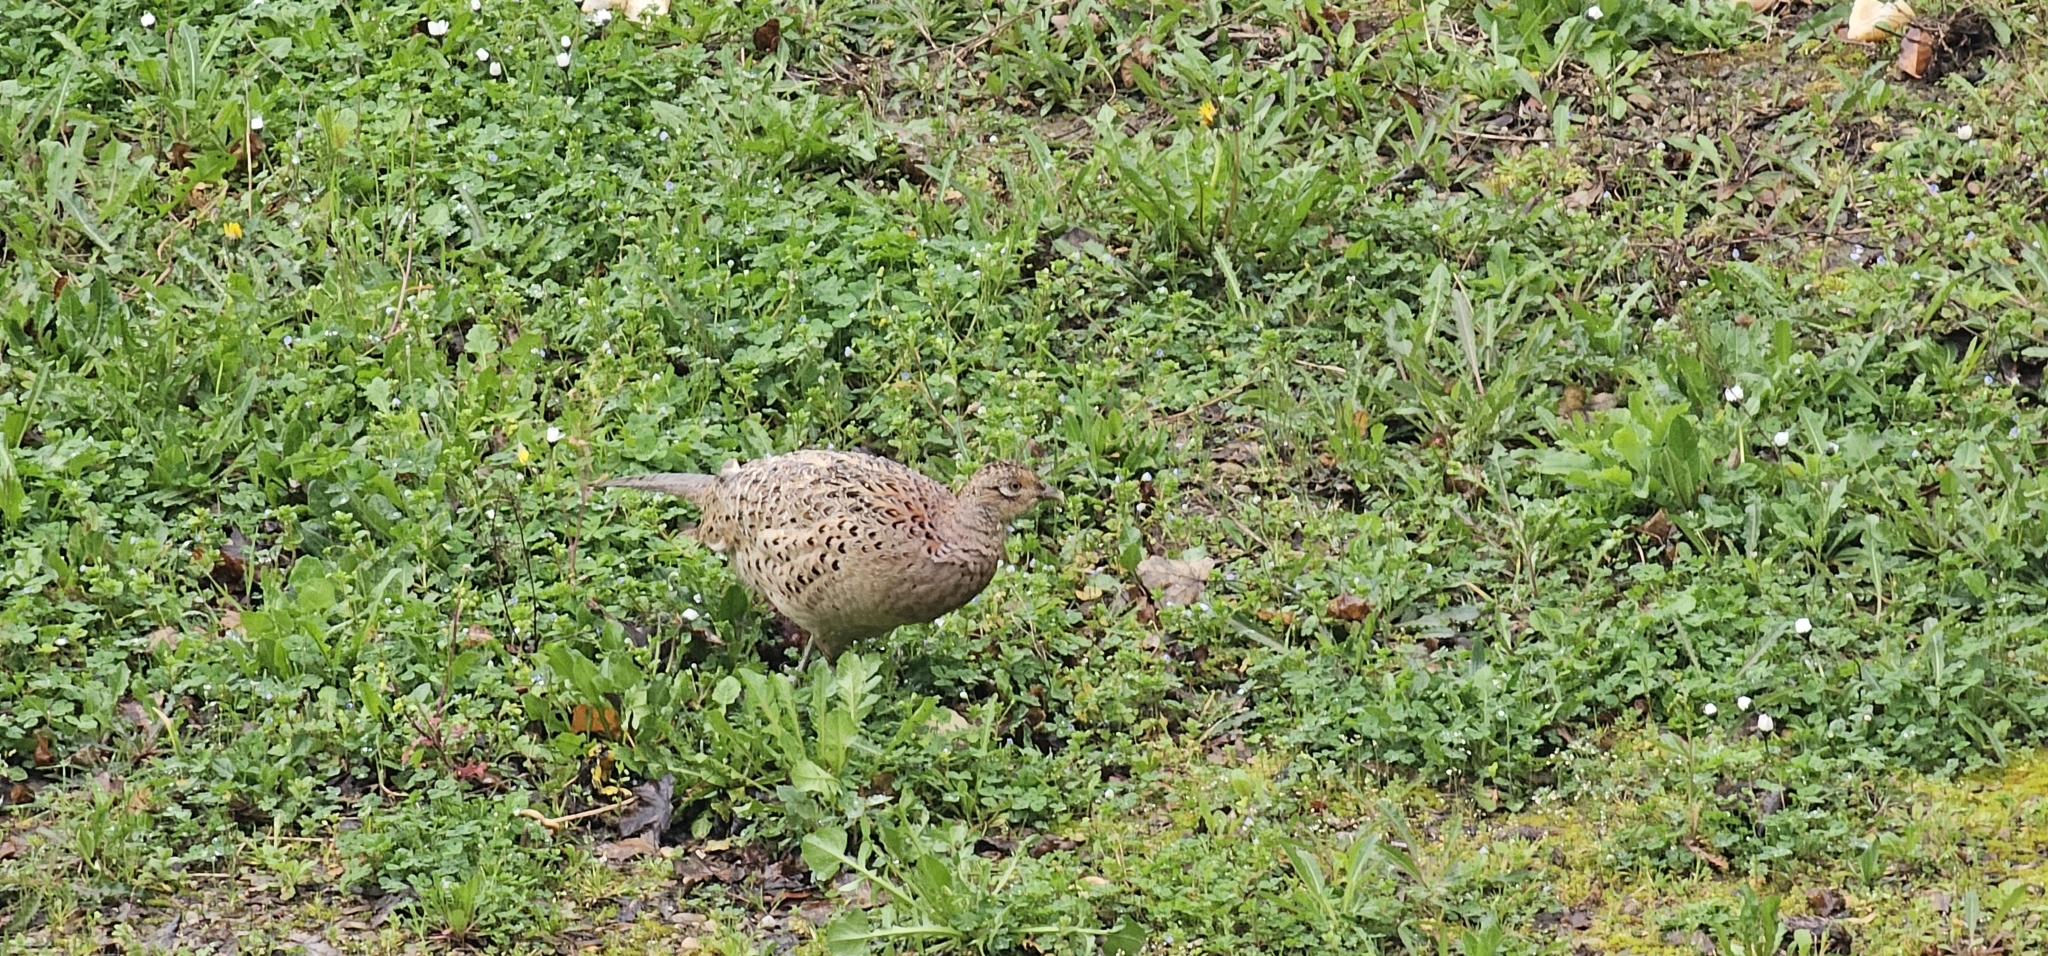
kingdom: Animalia
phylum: Chordata
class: Aves
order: Galliformes
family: Phasianidae
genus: Phasianus
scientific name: Phasianus colchicus
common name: Common pheasant
